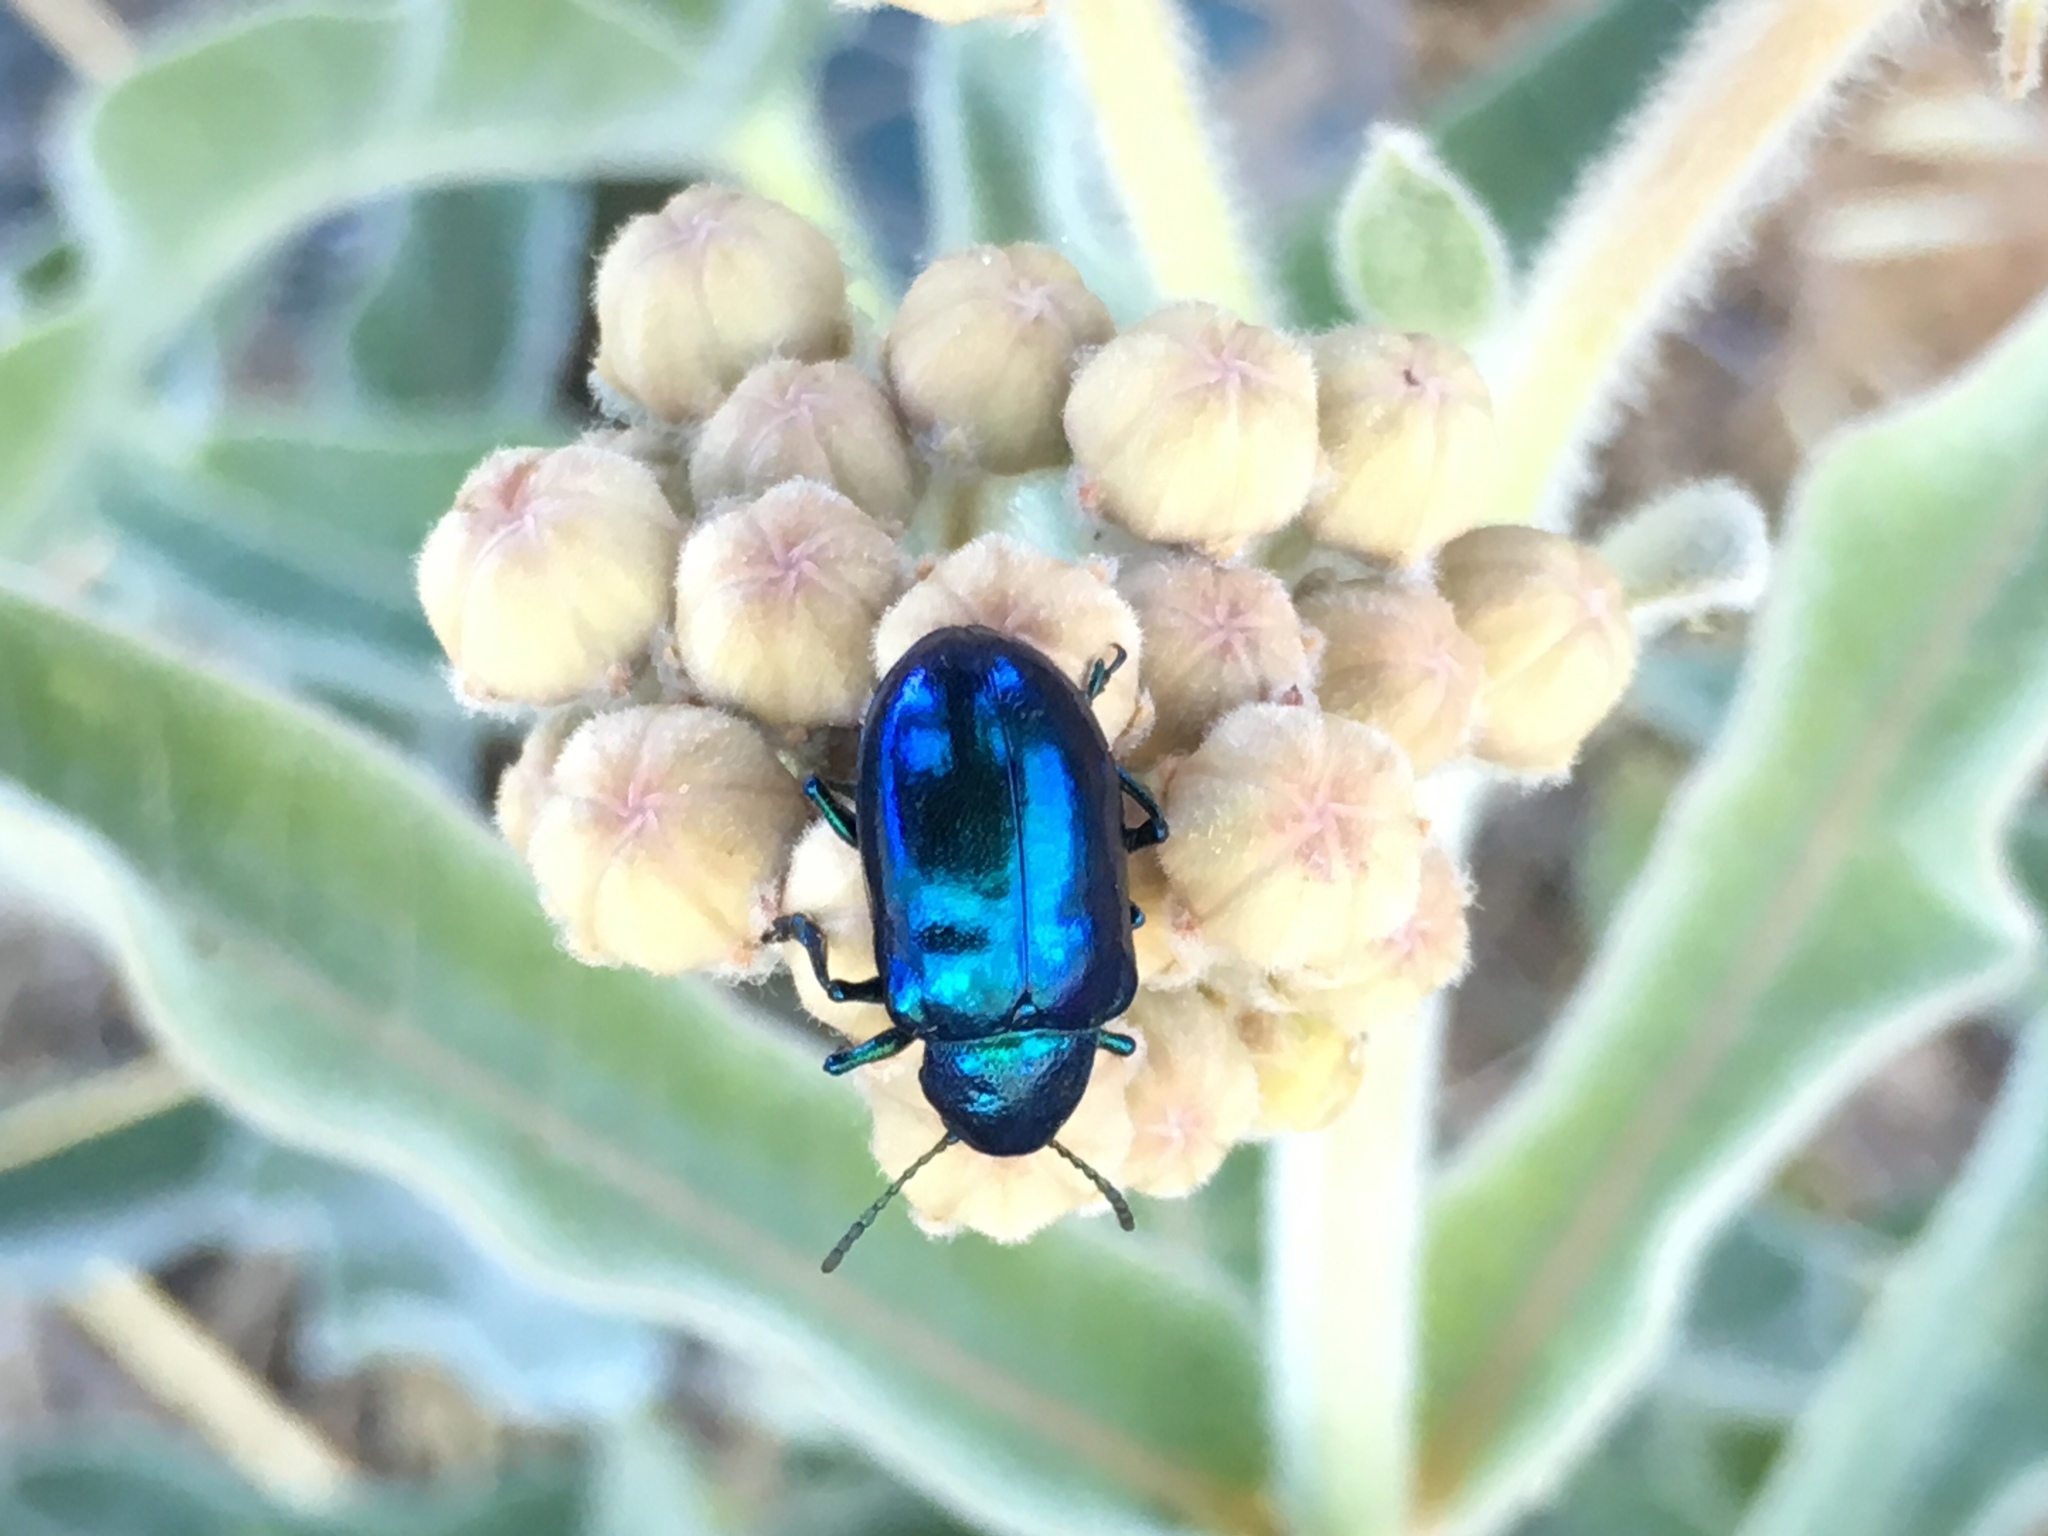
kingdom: Animalia
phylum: Arthropoda
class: Insecta
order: Coleoptera
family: Chrysomelidae
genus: Chrysochus
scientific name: Chrysochus cobaltinus
